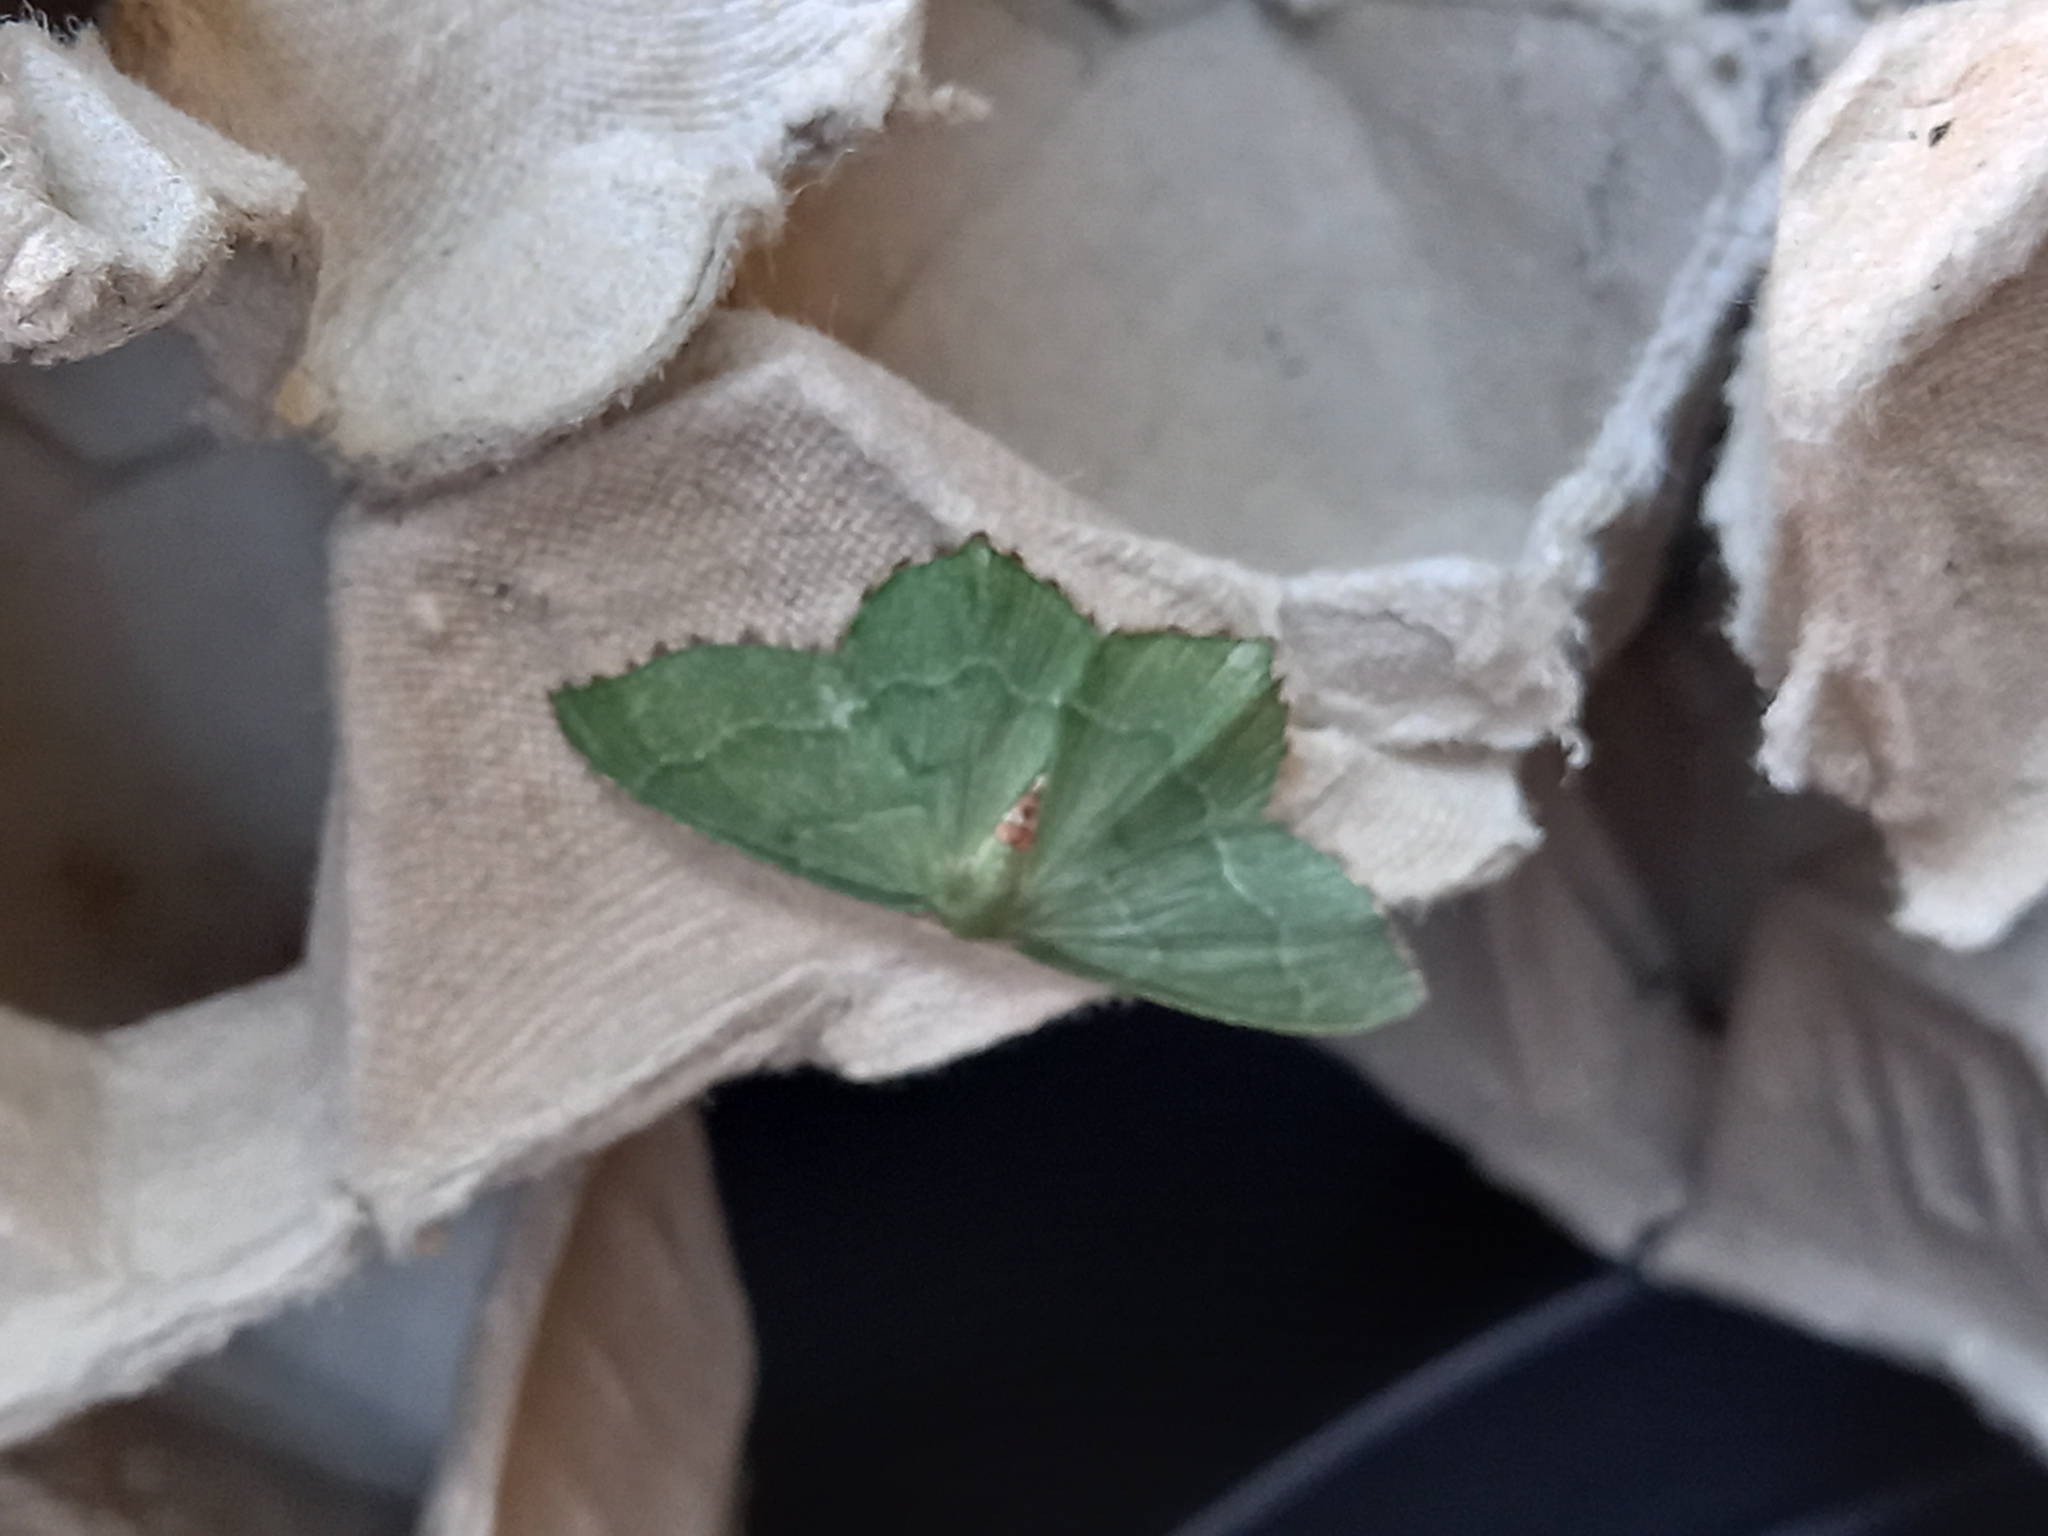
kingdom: Animalia
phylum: Arthropoda
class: Insecta
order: Lepidoptera
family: Geometridae
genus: Hemithea
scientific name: Hemithea aestivaria
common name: Common emerald
